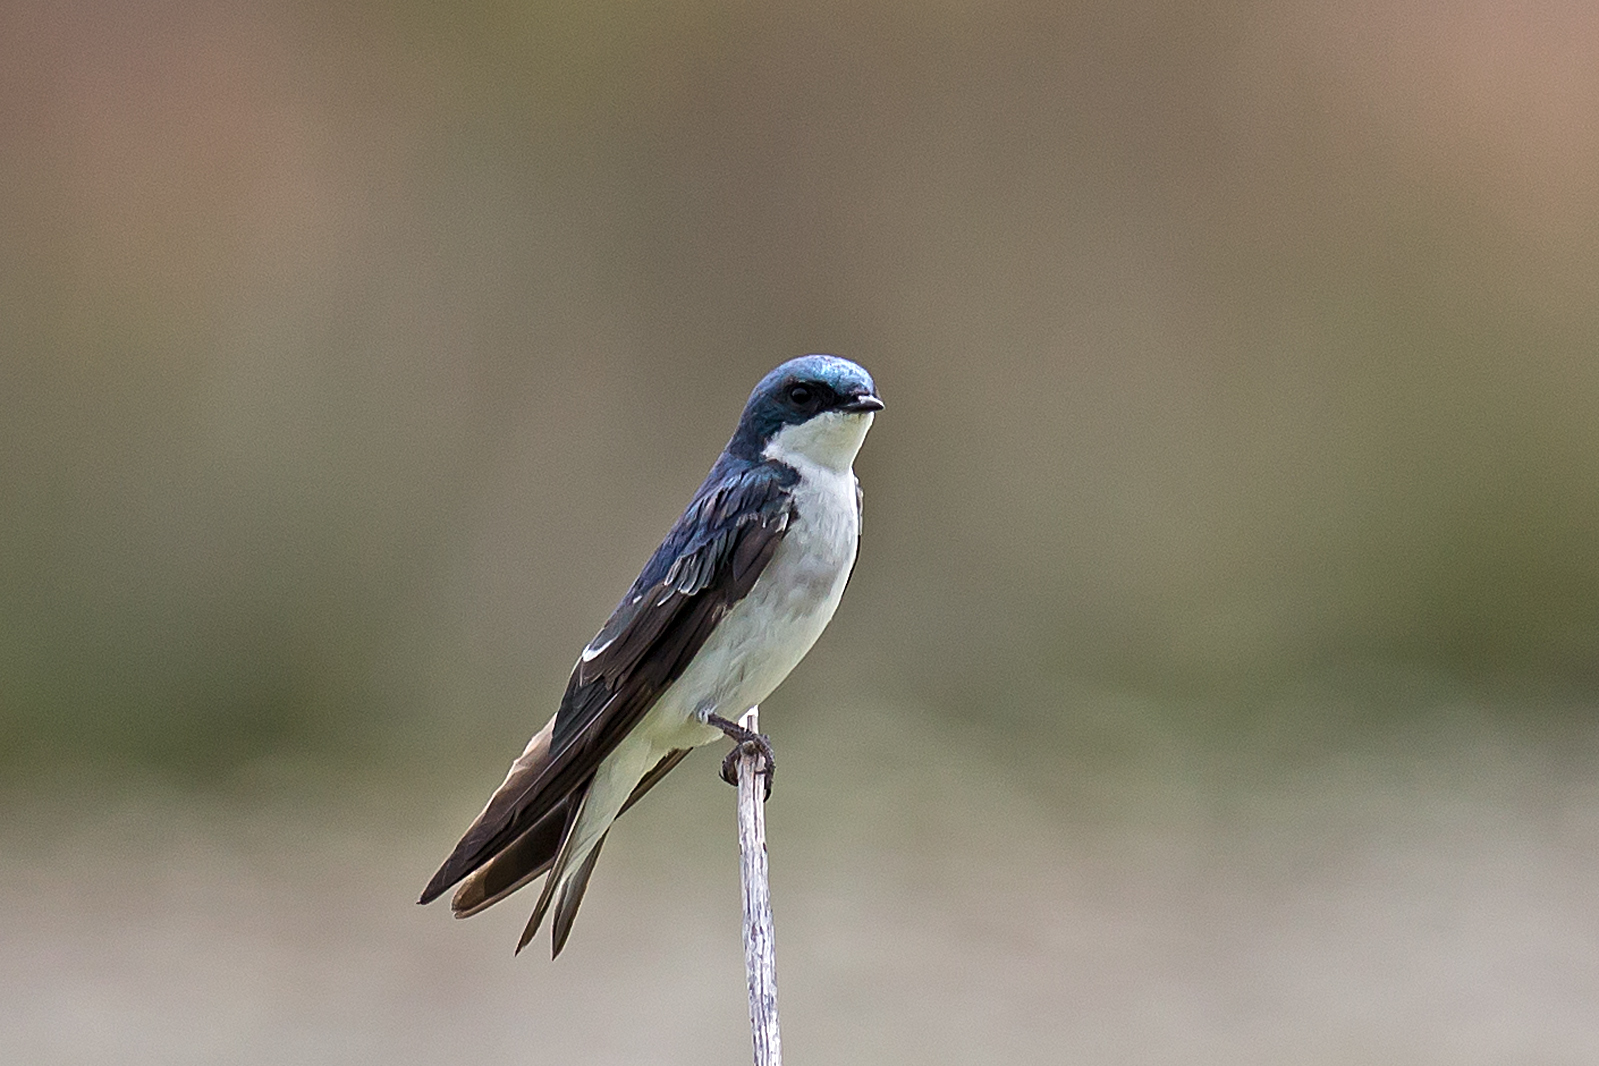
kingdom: Animalia
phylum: Chordata
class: Aves
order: Passeriformes
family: Hirundinidae
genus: Tachycineta
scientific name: Tachycineta bicolor
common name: Tree swallow
